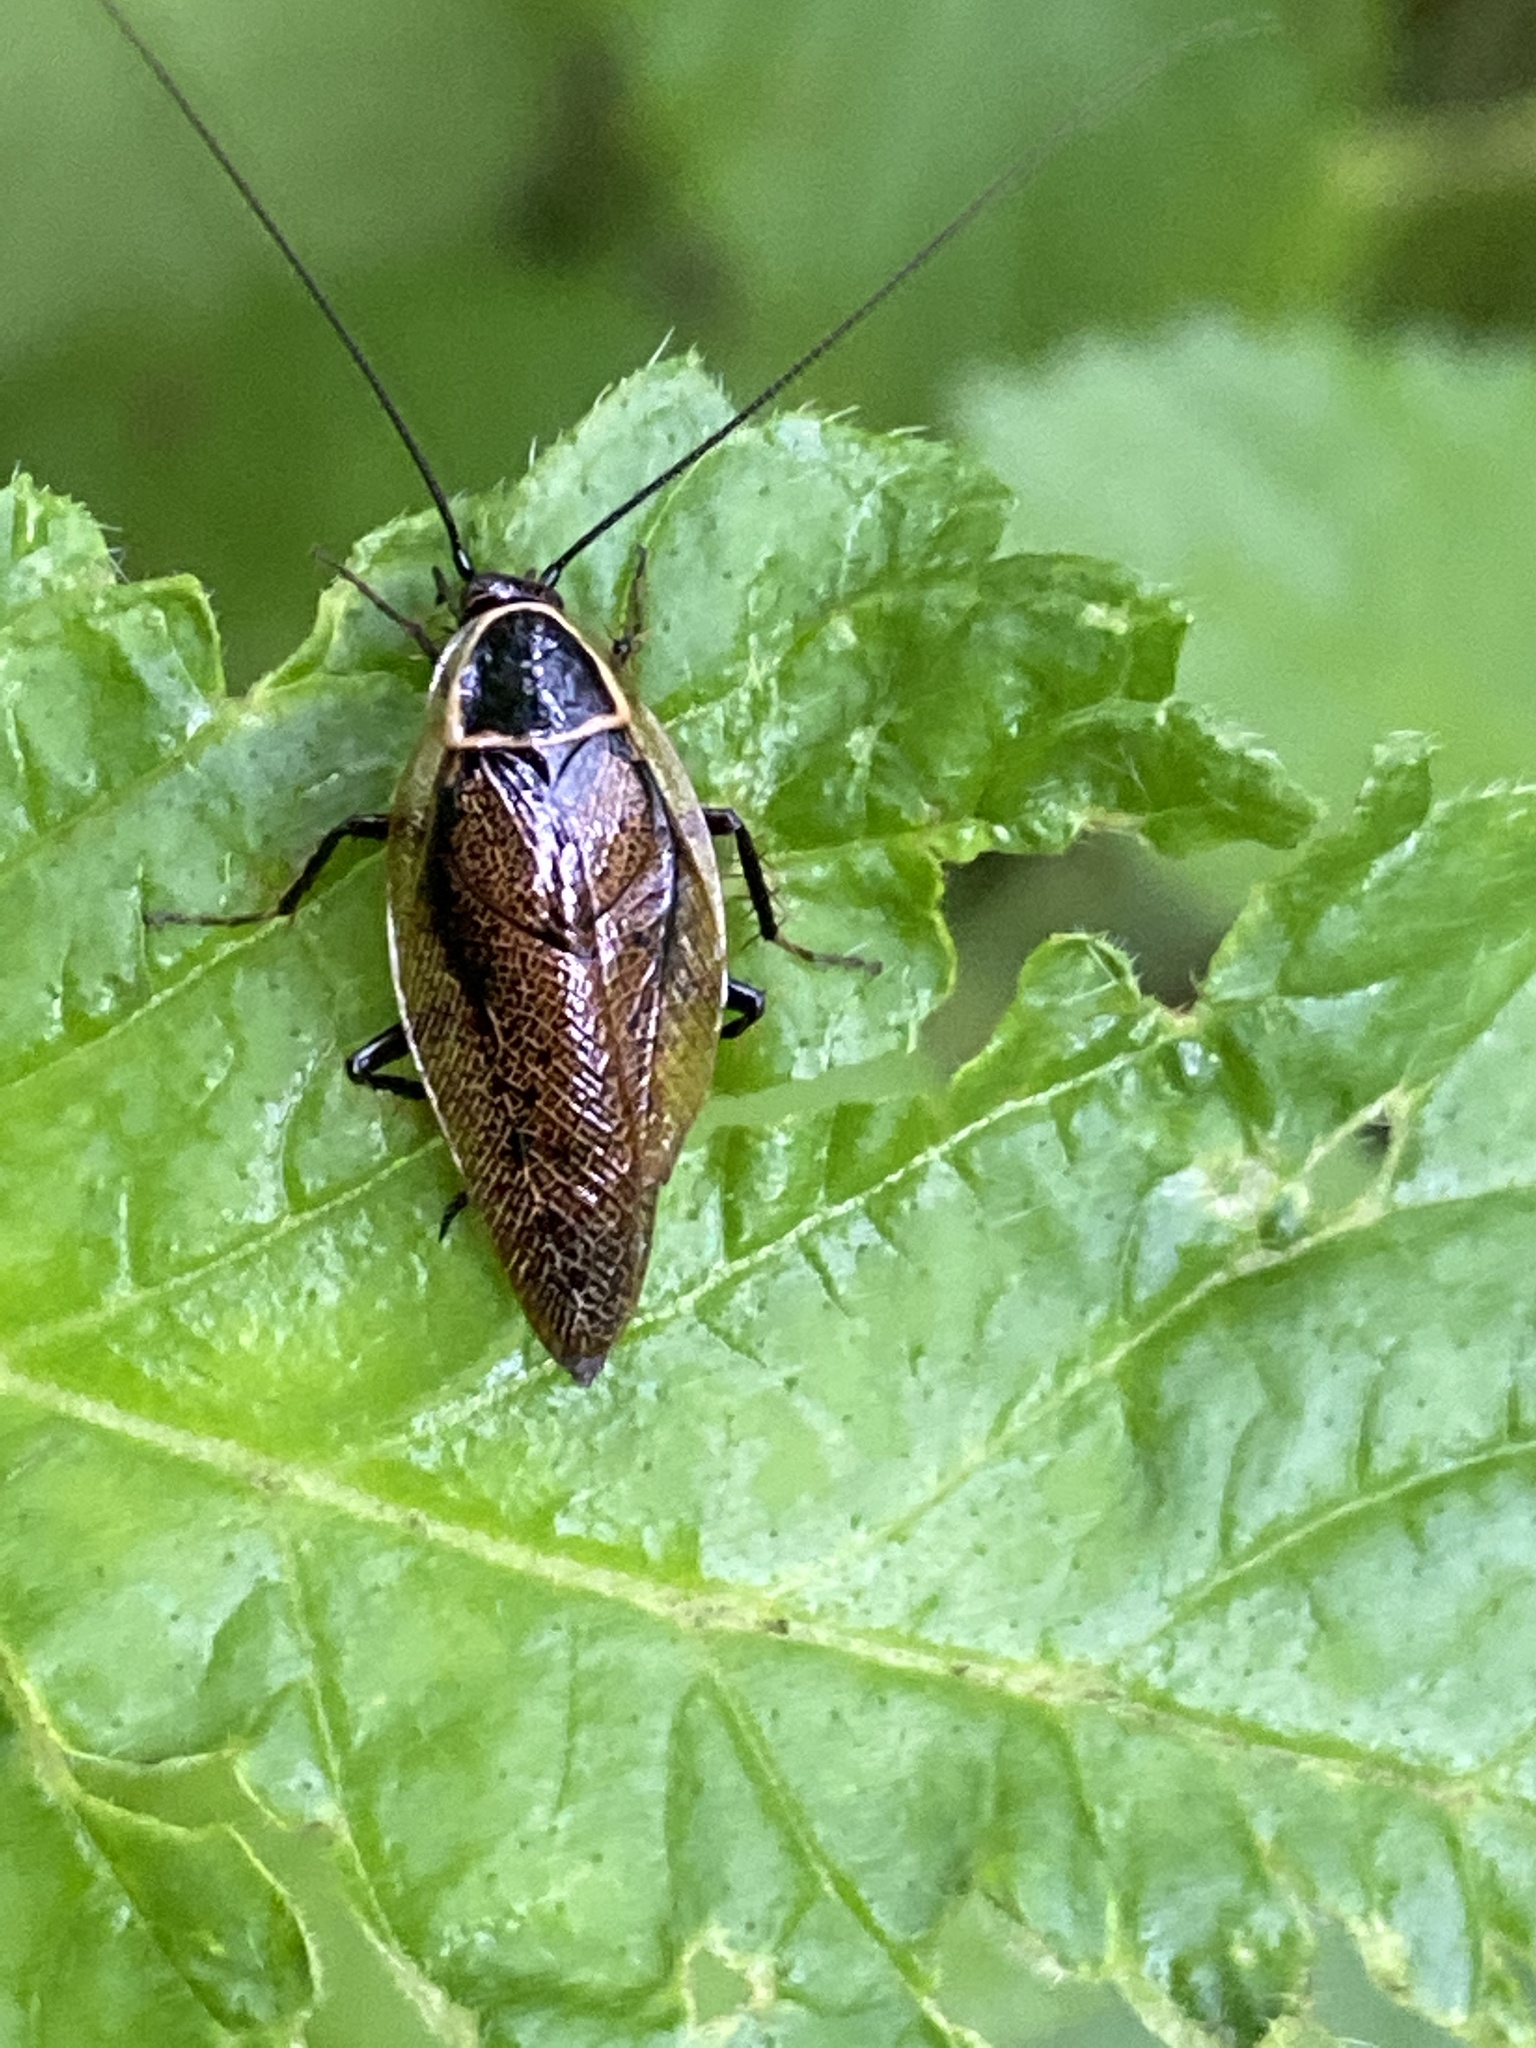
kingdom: Animalia
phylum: Arthropoda
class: Insecta
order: Blattodea
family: Ectobiidae
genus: Ectobius
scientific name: Ectobius sylvestris
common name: Forest cockroach
